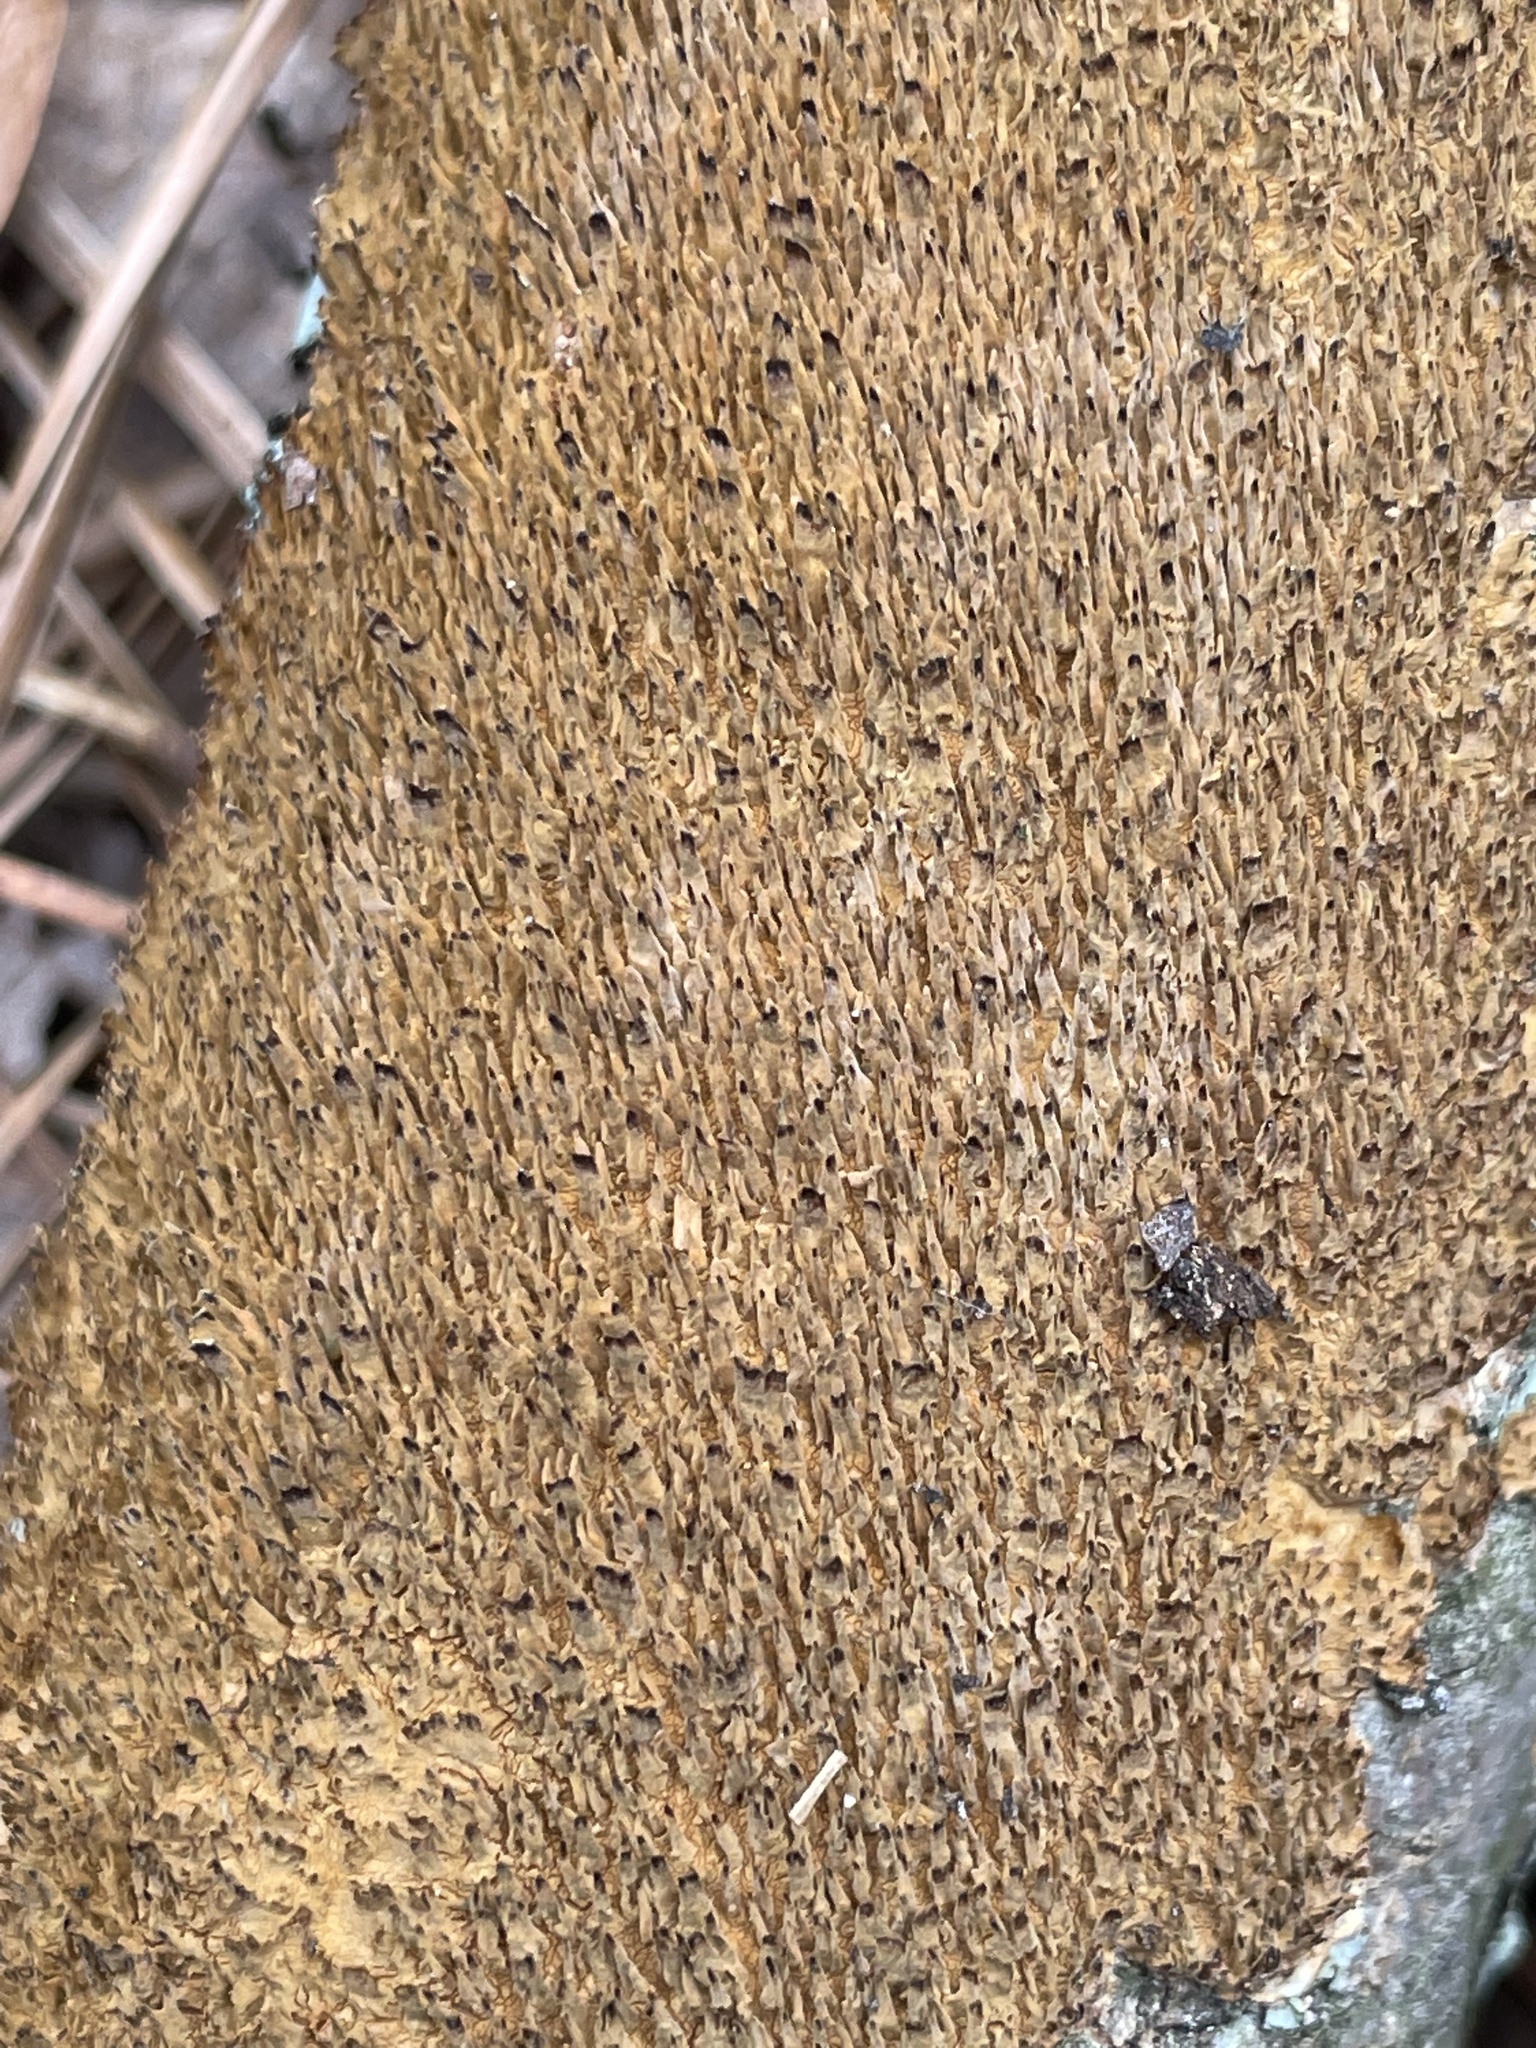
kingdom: Fungi
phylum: Basidiomycota
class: Agaricomycetes
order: Hymenochaetales
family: Hymenochaetaceae
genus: Hydnoporia
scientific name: Hydnoporia olivacea
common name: Brown-toothed crust fungus
